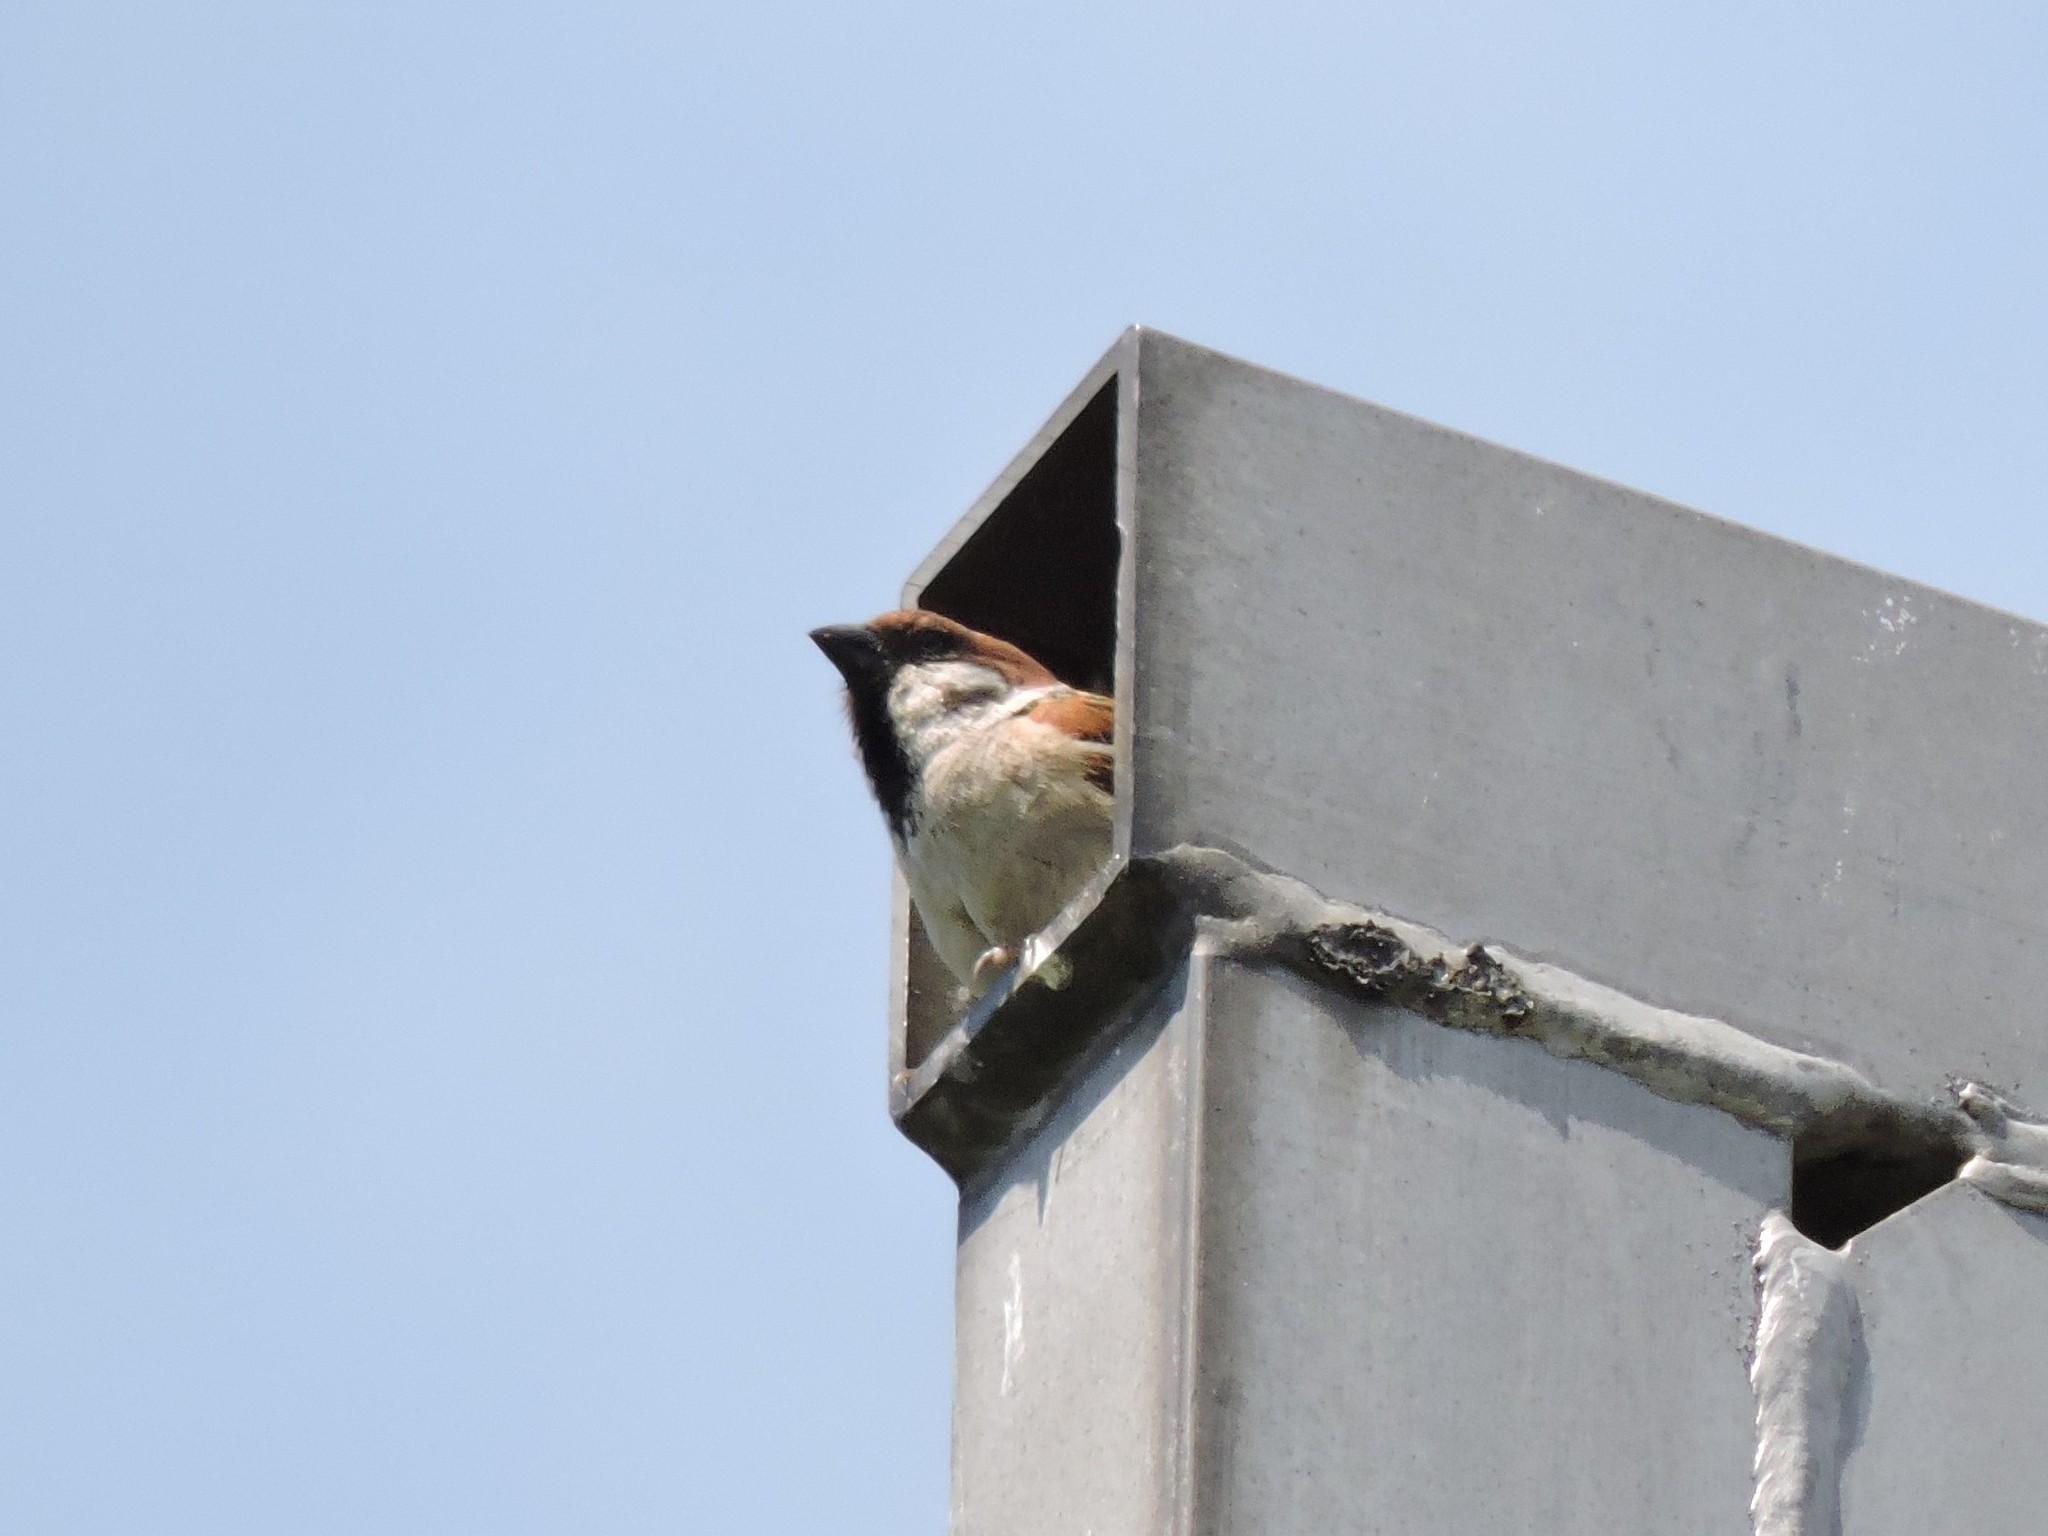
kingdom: Animalia
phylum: Chordata
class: Aves
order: Passeriformes
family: Passeridae
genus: Passer
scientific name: Passer montanus
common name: Eurasian tree sparrow
